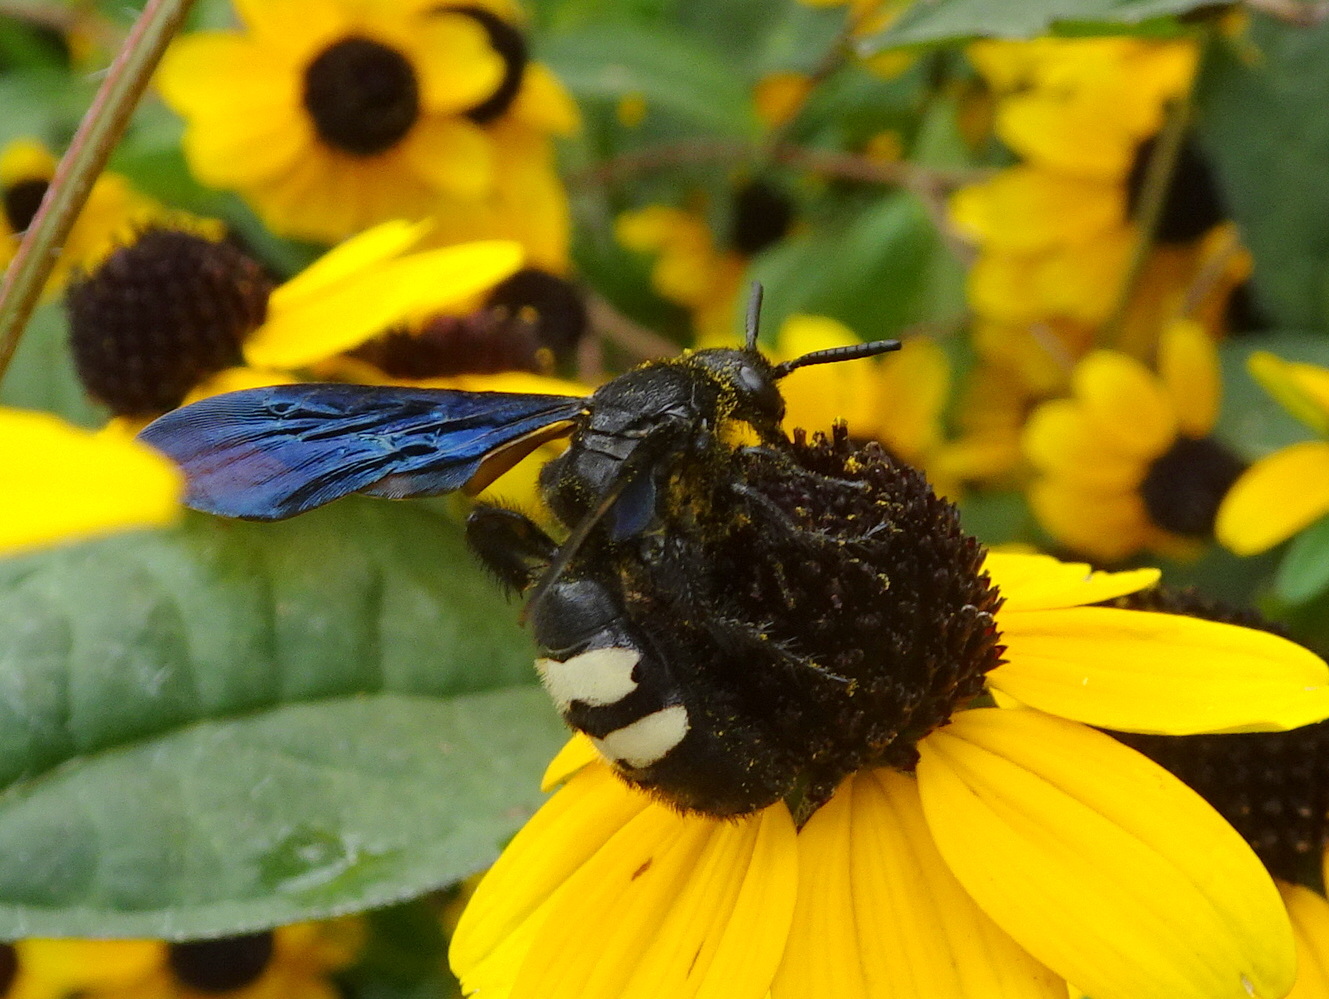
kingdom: Animalia
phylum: Arthropoda
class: Insecta
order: Hymenoptera
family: Scoliidae
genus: Scolia
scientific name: Scolia bicincta
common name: Double-banded scoliid wasp
